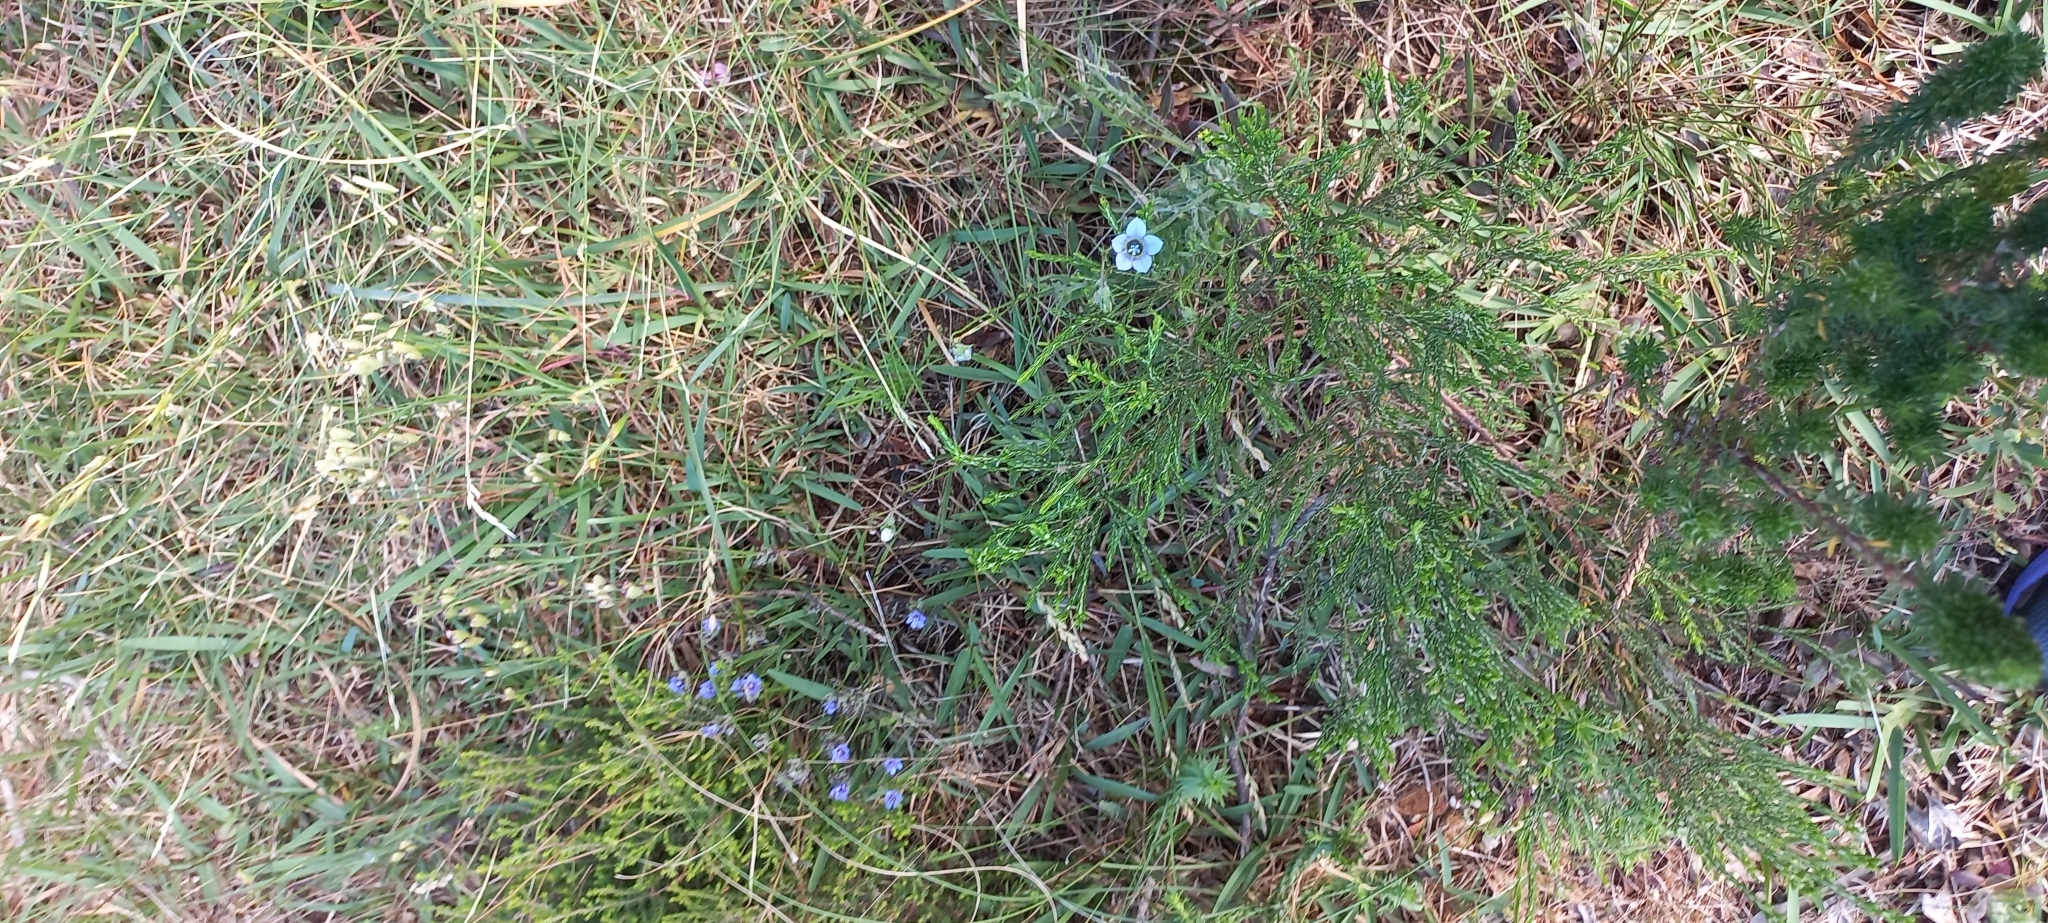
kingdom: Plantae
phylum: Tracheophyta
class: Magnoliopsida
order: Asterales
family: Campanulaceae
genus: Wahlenbergia
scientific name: Wahlenbergia capensis
